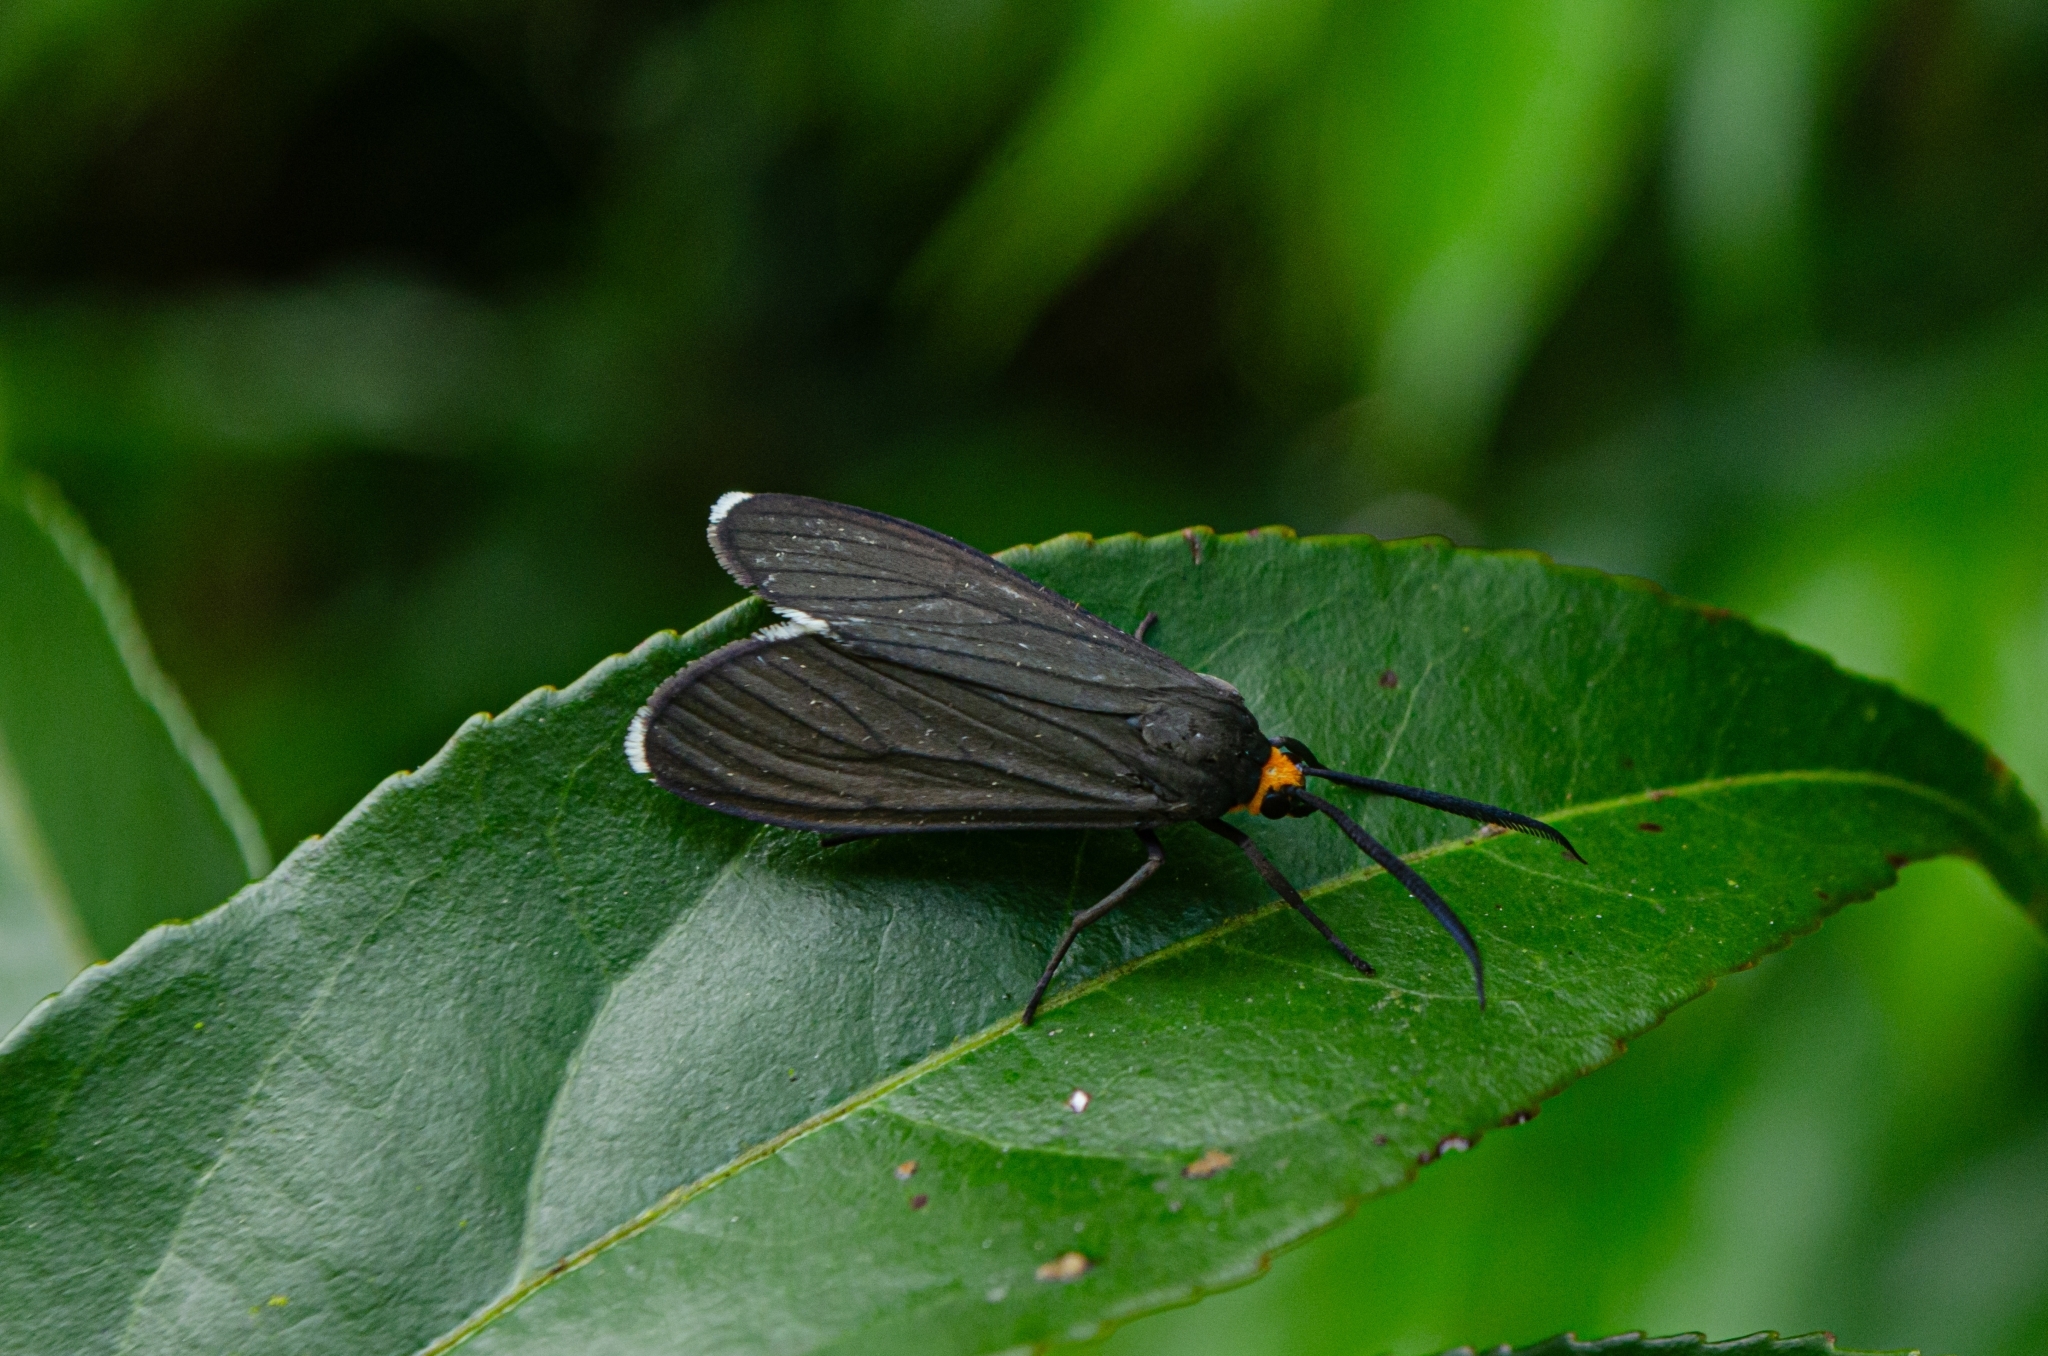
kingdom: Animalia
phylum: Arthropoda
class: Insecta
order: Lepidoptera
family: Erebidae
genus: Ctenucha
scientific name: Ctenucha rubriceps
